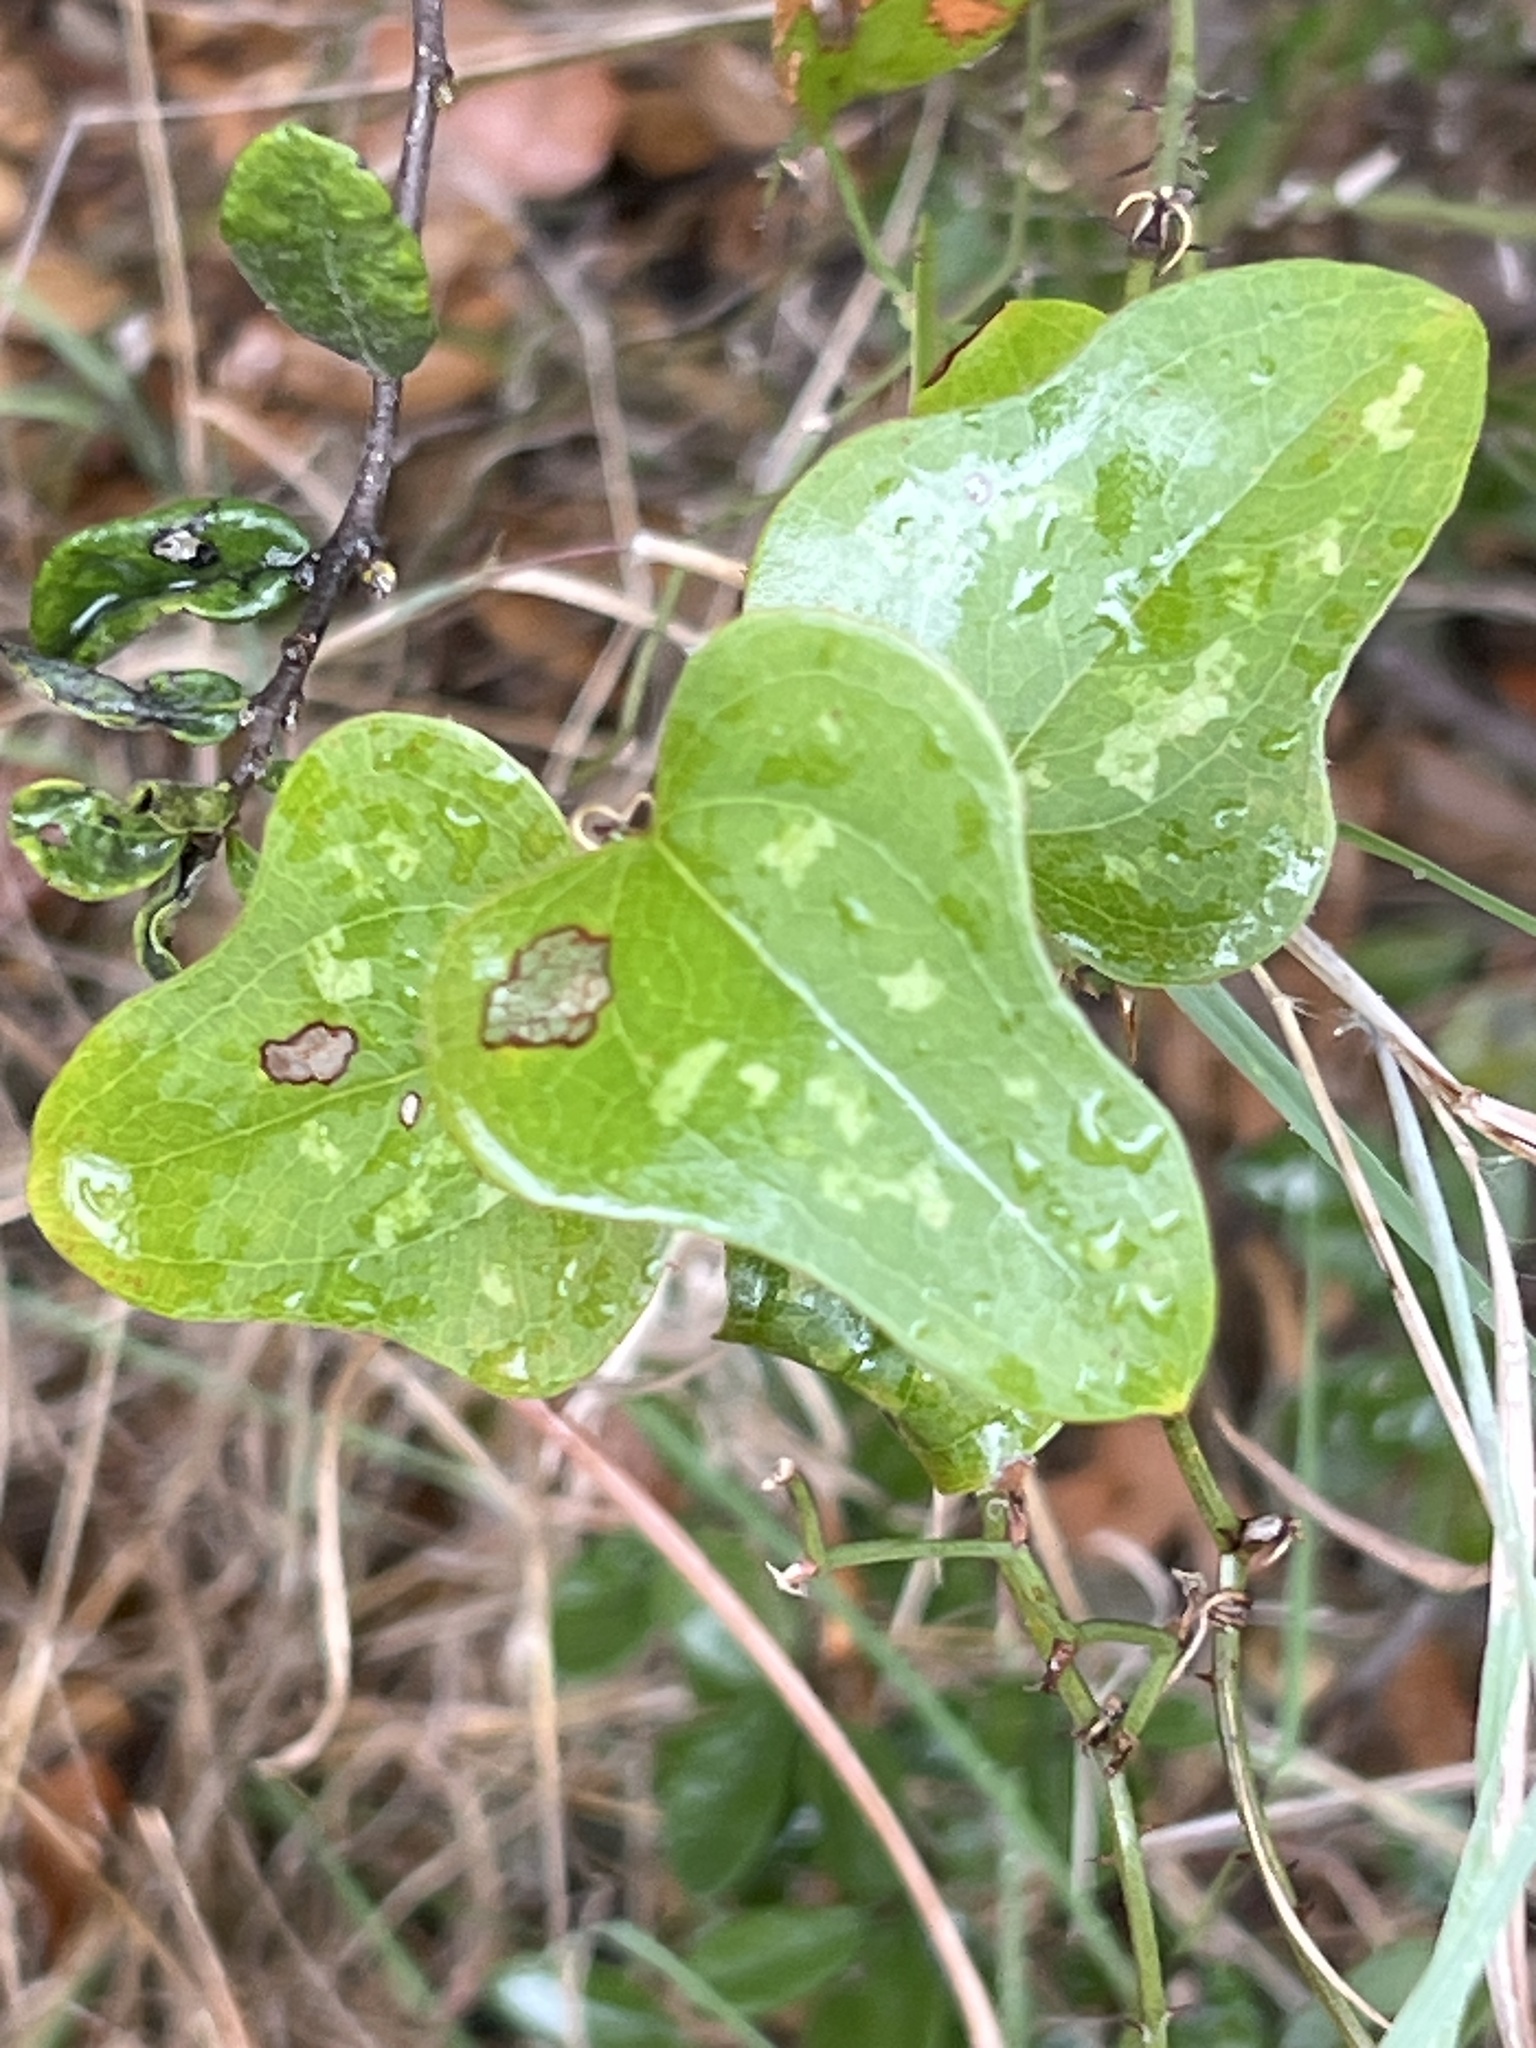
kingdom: Plantae
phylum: Tracheophyta
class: Liliopsida
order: Liliales
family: Smilacaceae
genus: Smilax
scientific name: Smilax bona-nox
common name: Catbrier
